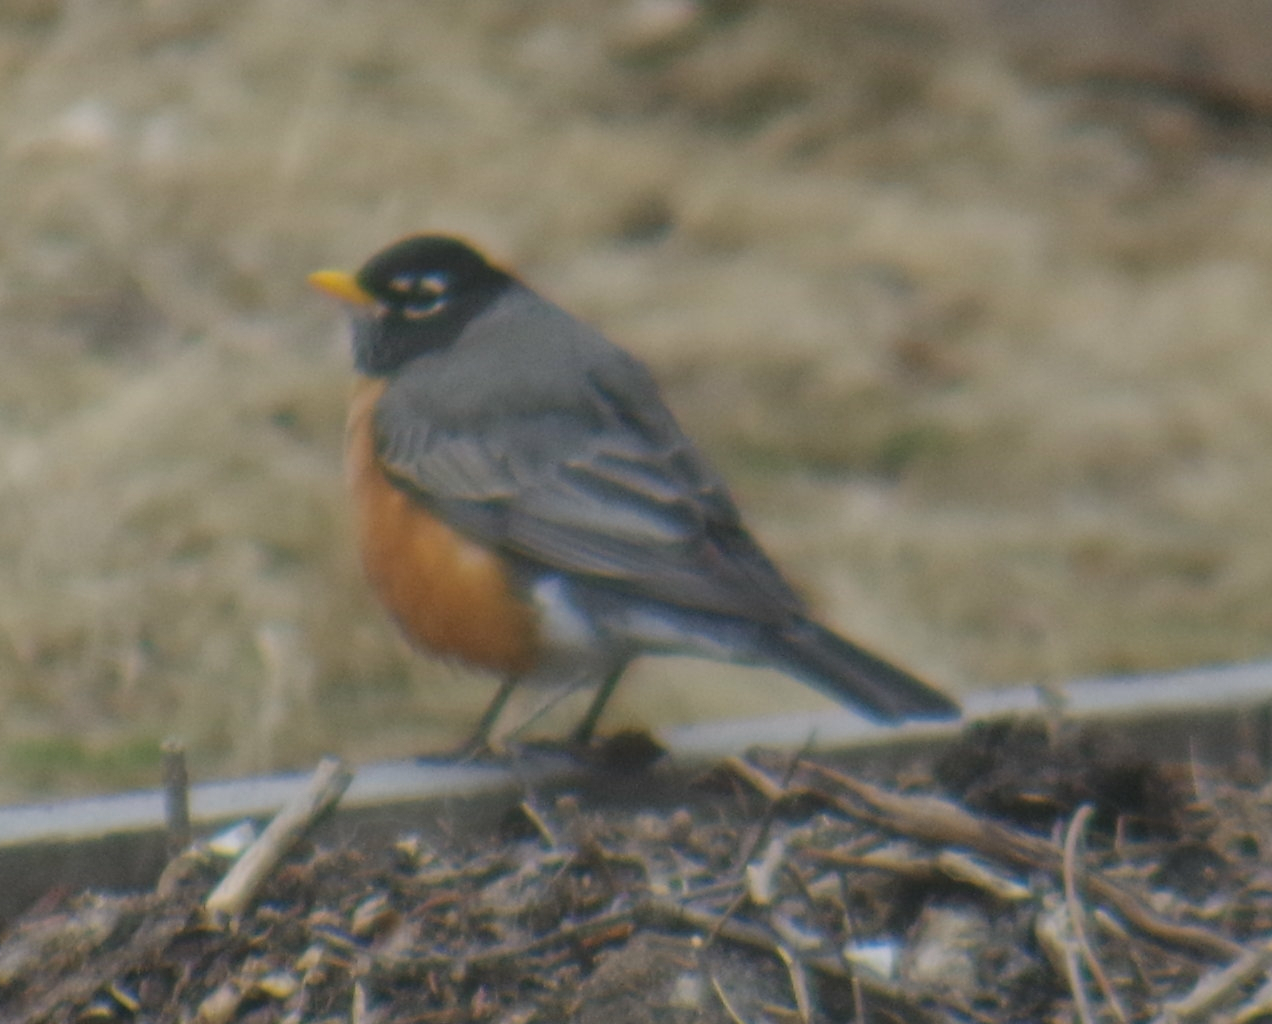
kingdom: Animalia
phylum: Chordata
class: Aves
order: Passeriformes
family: Turdidae
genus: Turdus
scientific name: Turdus migratorius
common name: American robin
